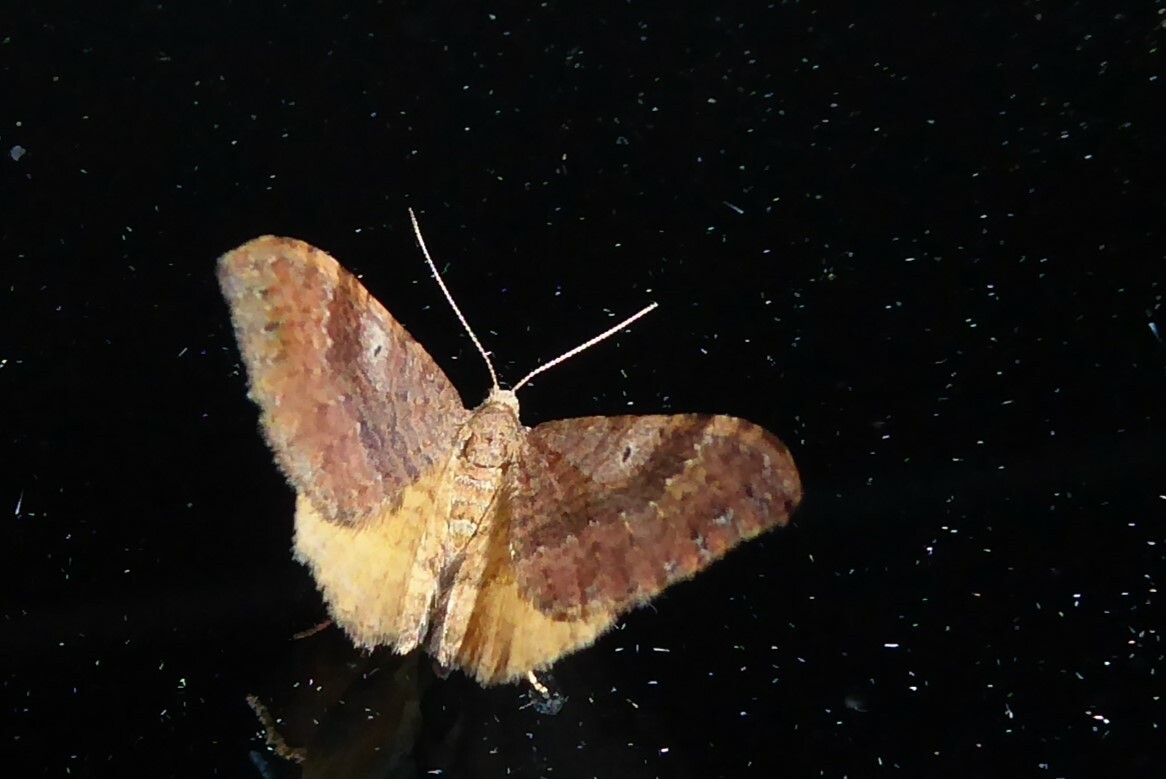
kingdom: Animalia
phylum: Arthropoda
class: Insecta
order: Lepidoptera
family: Geometridae
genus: Homodotis
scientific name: Homodotis megaspilata
